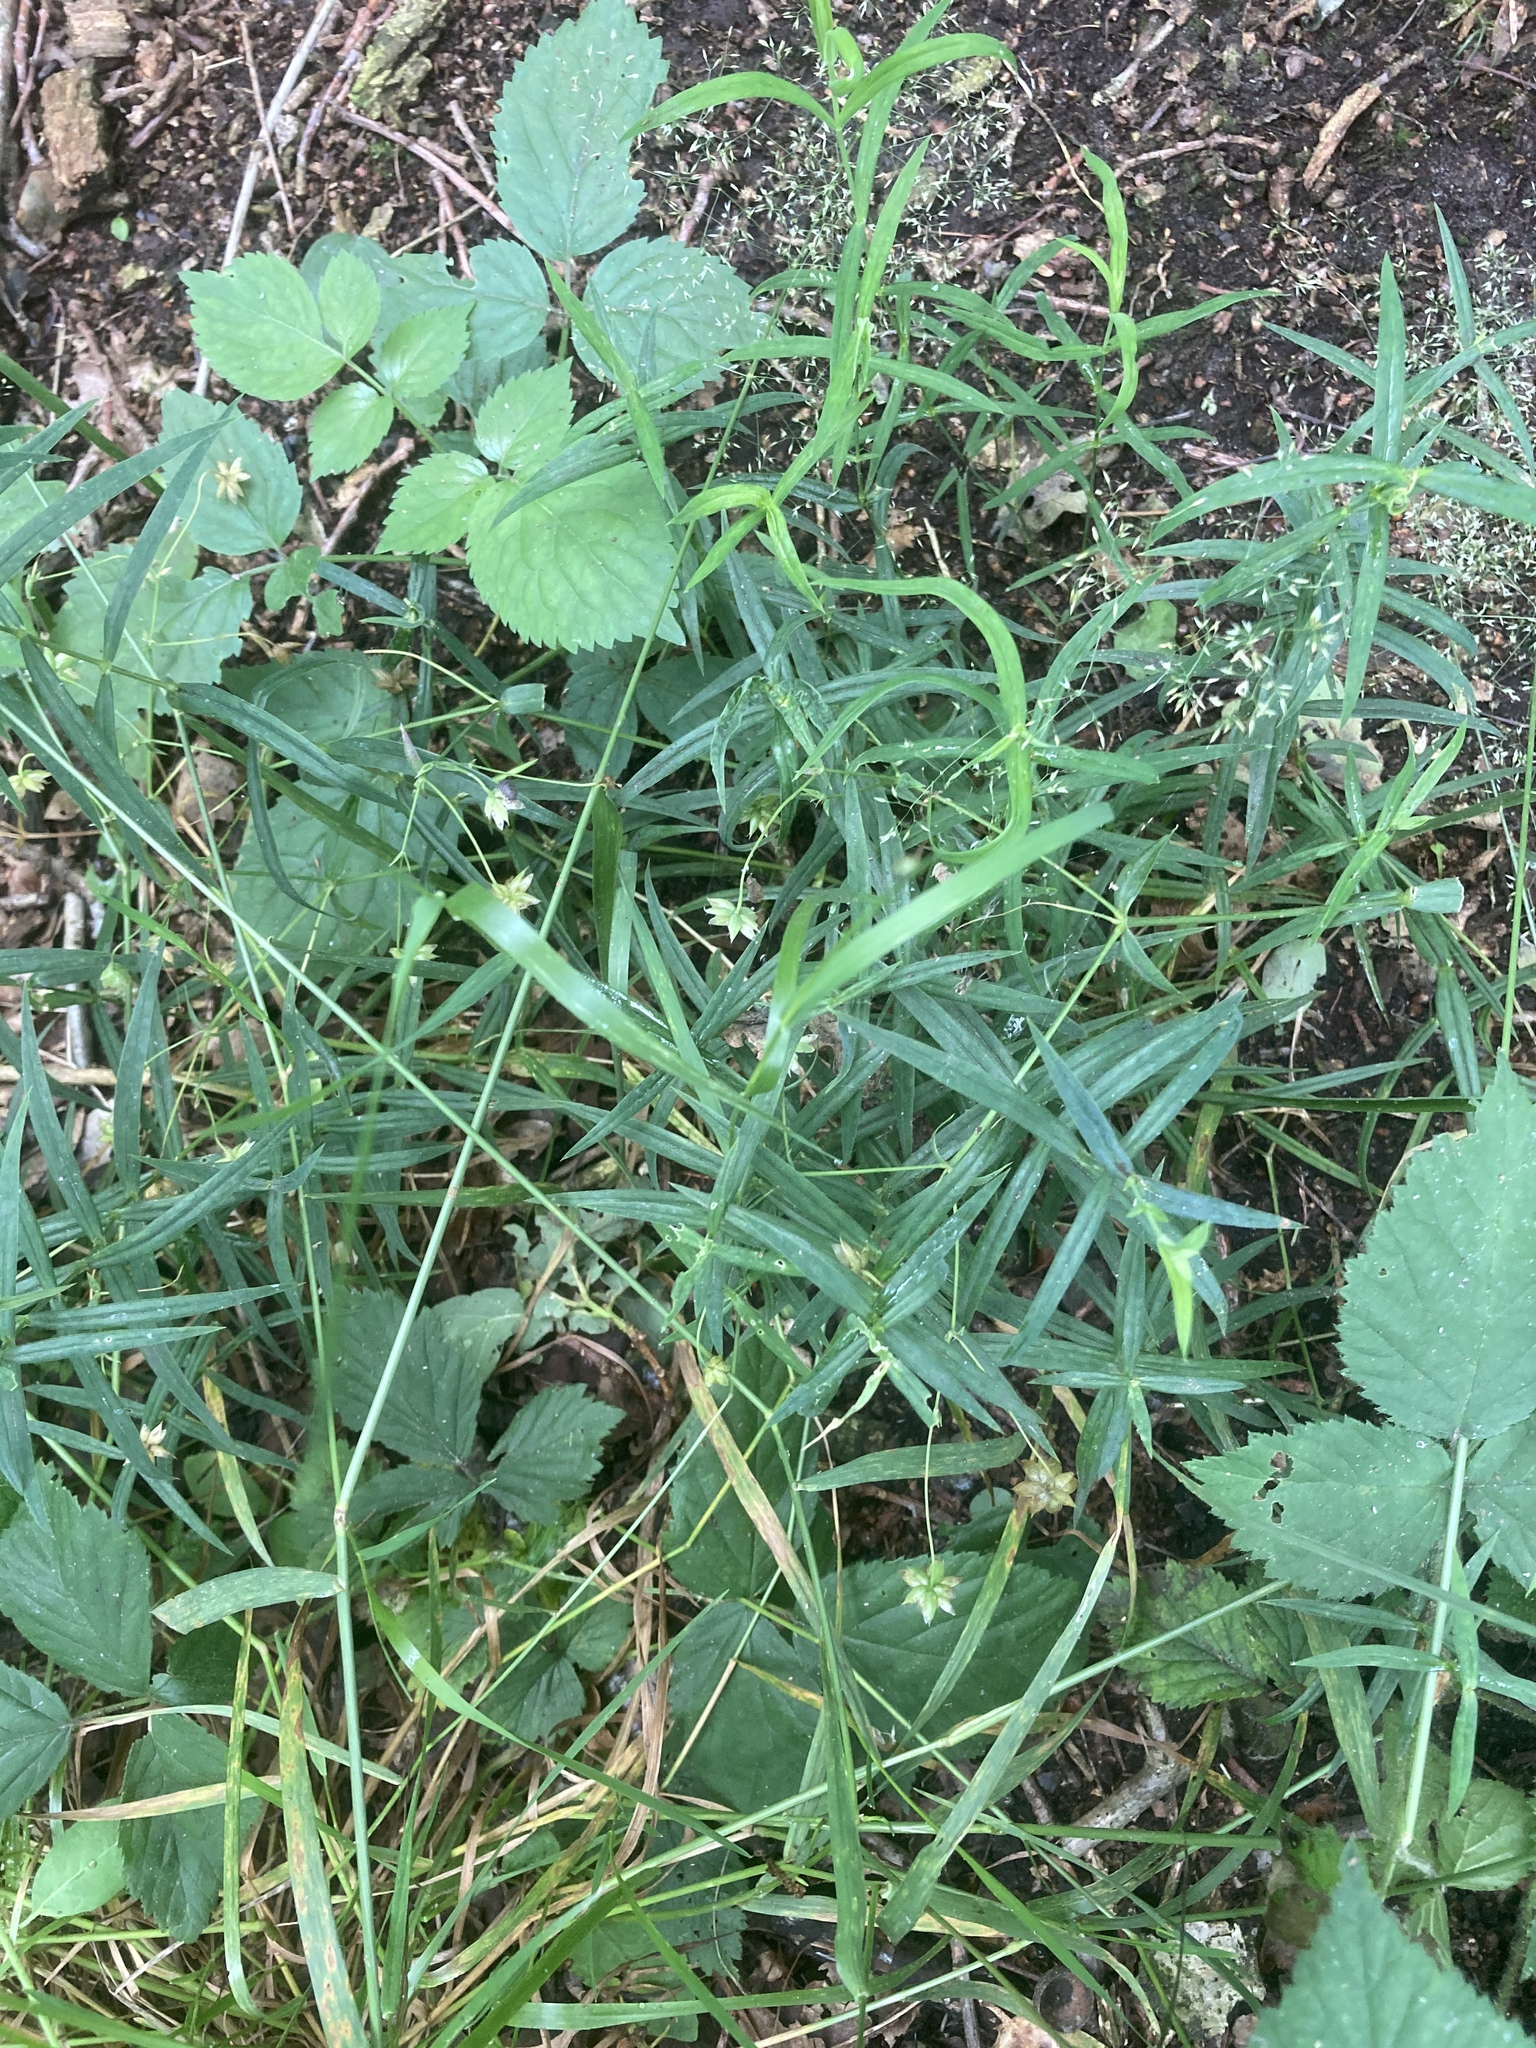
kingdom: Plantae
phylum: Tracheophyta
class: Magnoliopsida
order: Caryophyllales
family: Caryophyllaceae
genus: Rabelera
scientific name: Rabelera holostea
